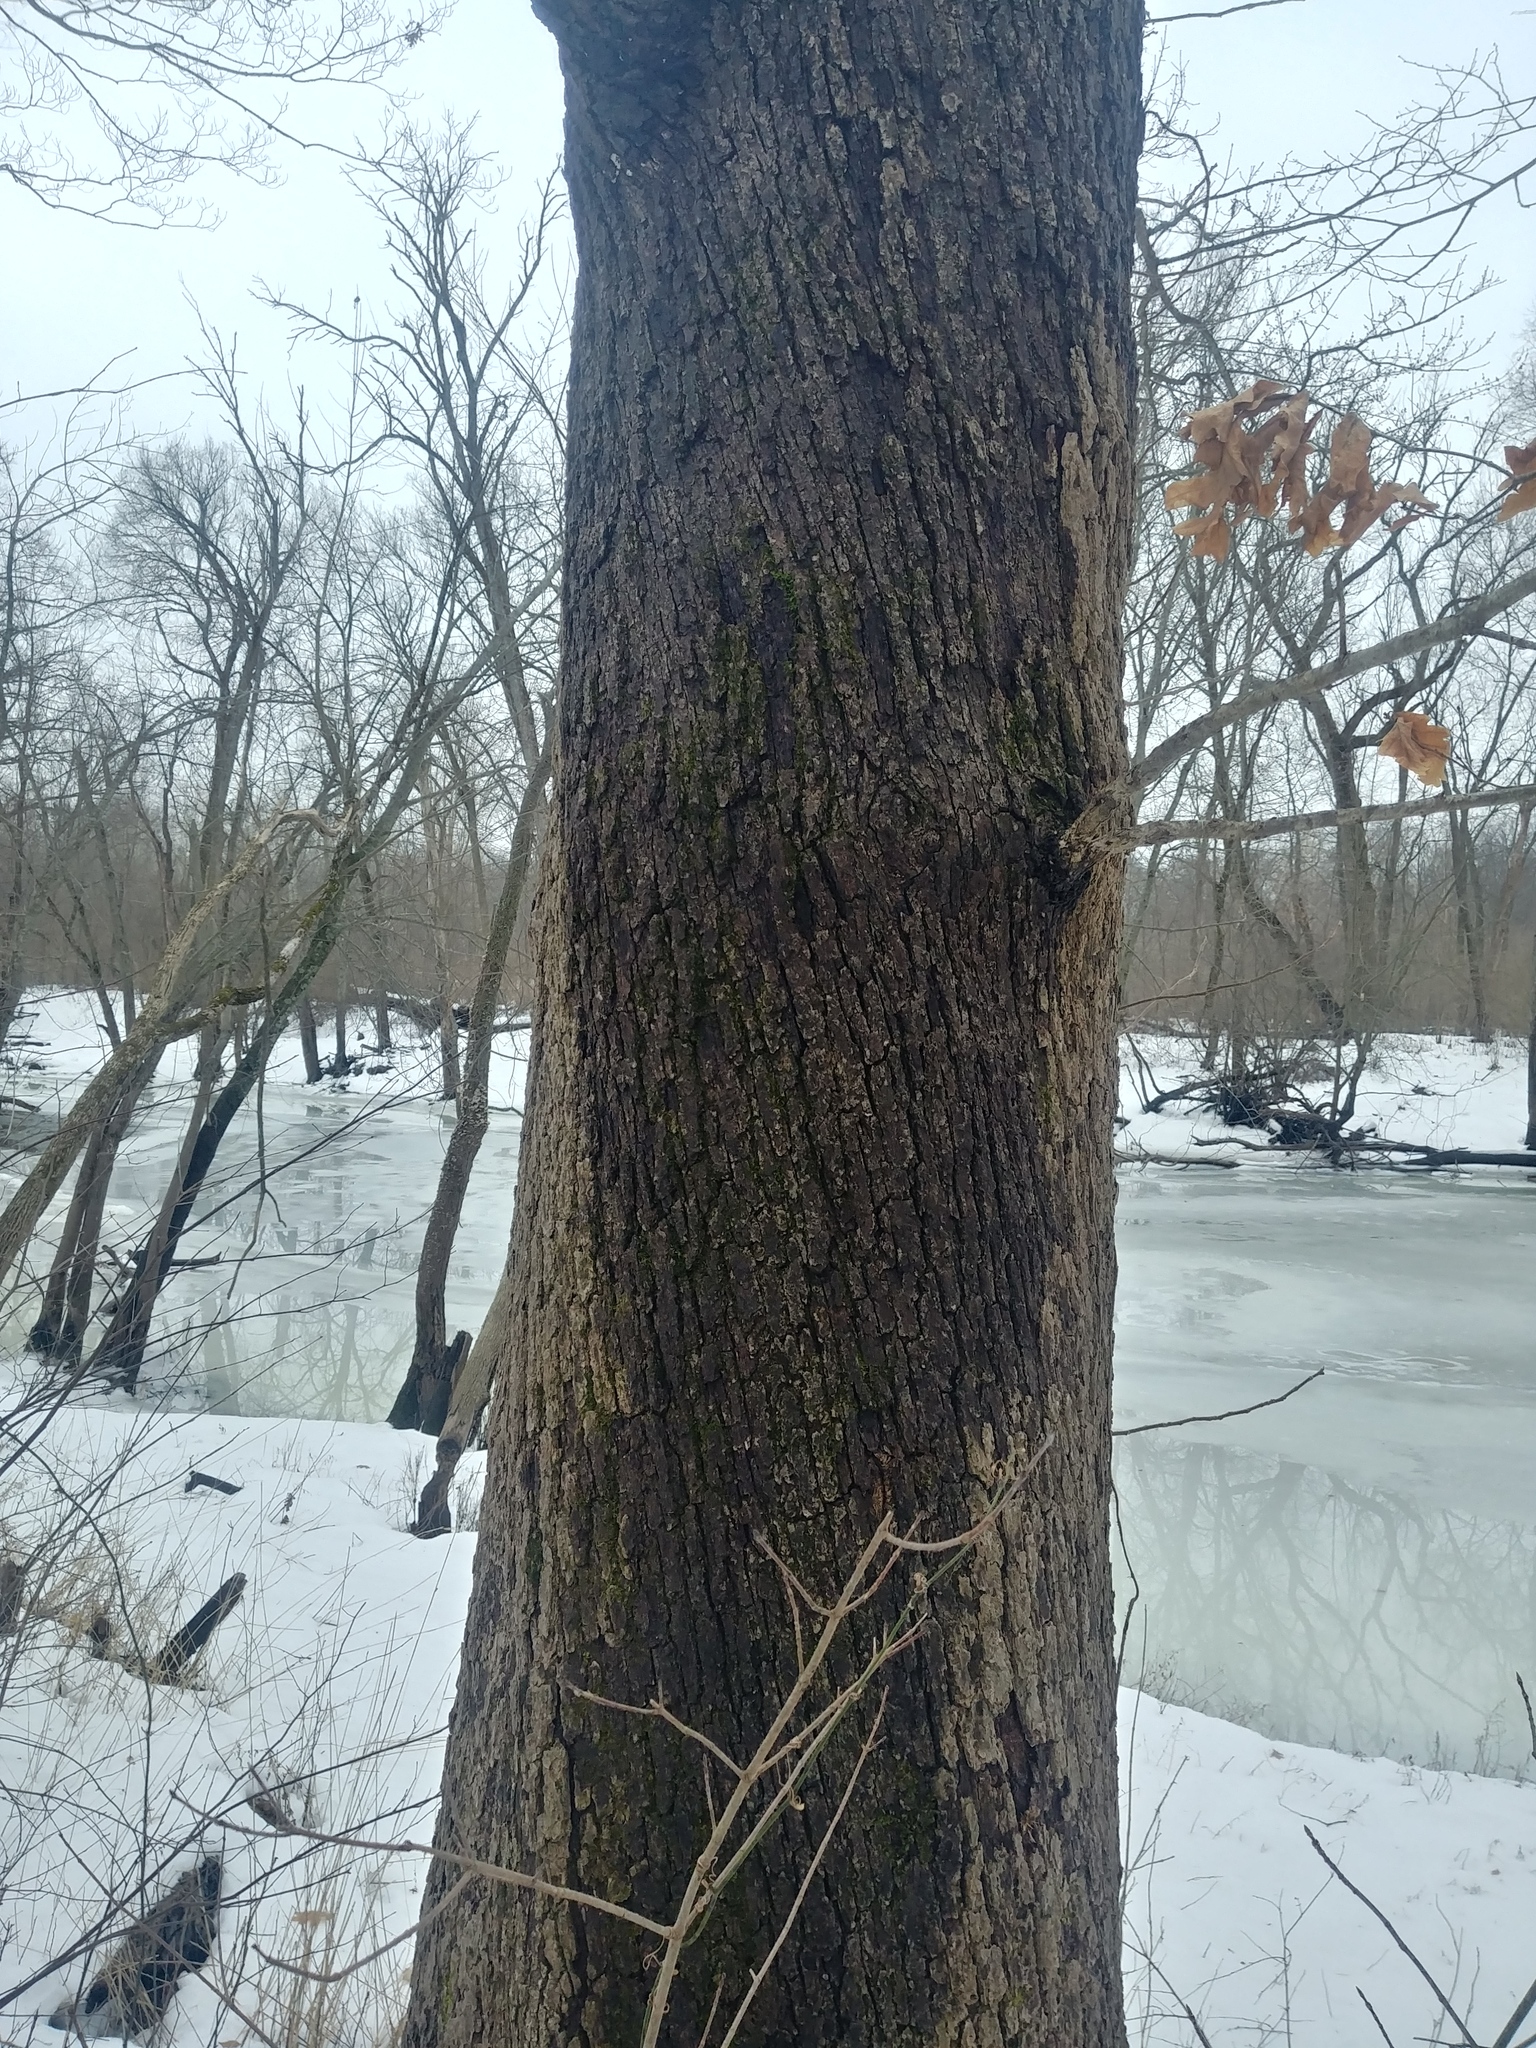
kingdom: Plantae
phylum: Tracheophyta
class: Magnoliopsida
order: Fagales
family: Fagaceae
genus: Quercus
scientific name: Quercus alba
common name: White oak
